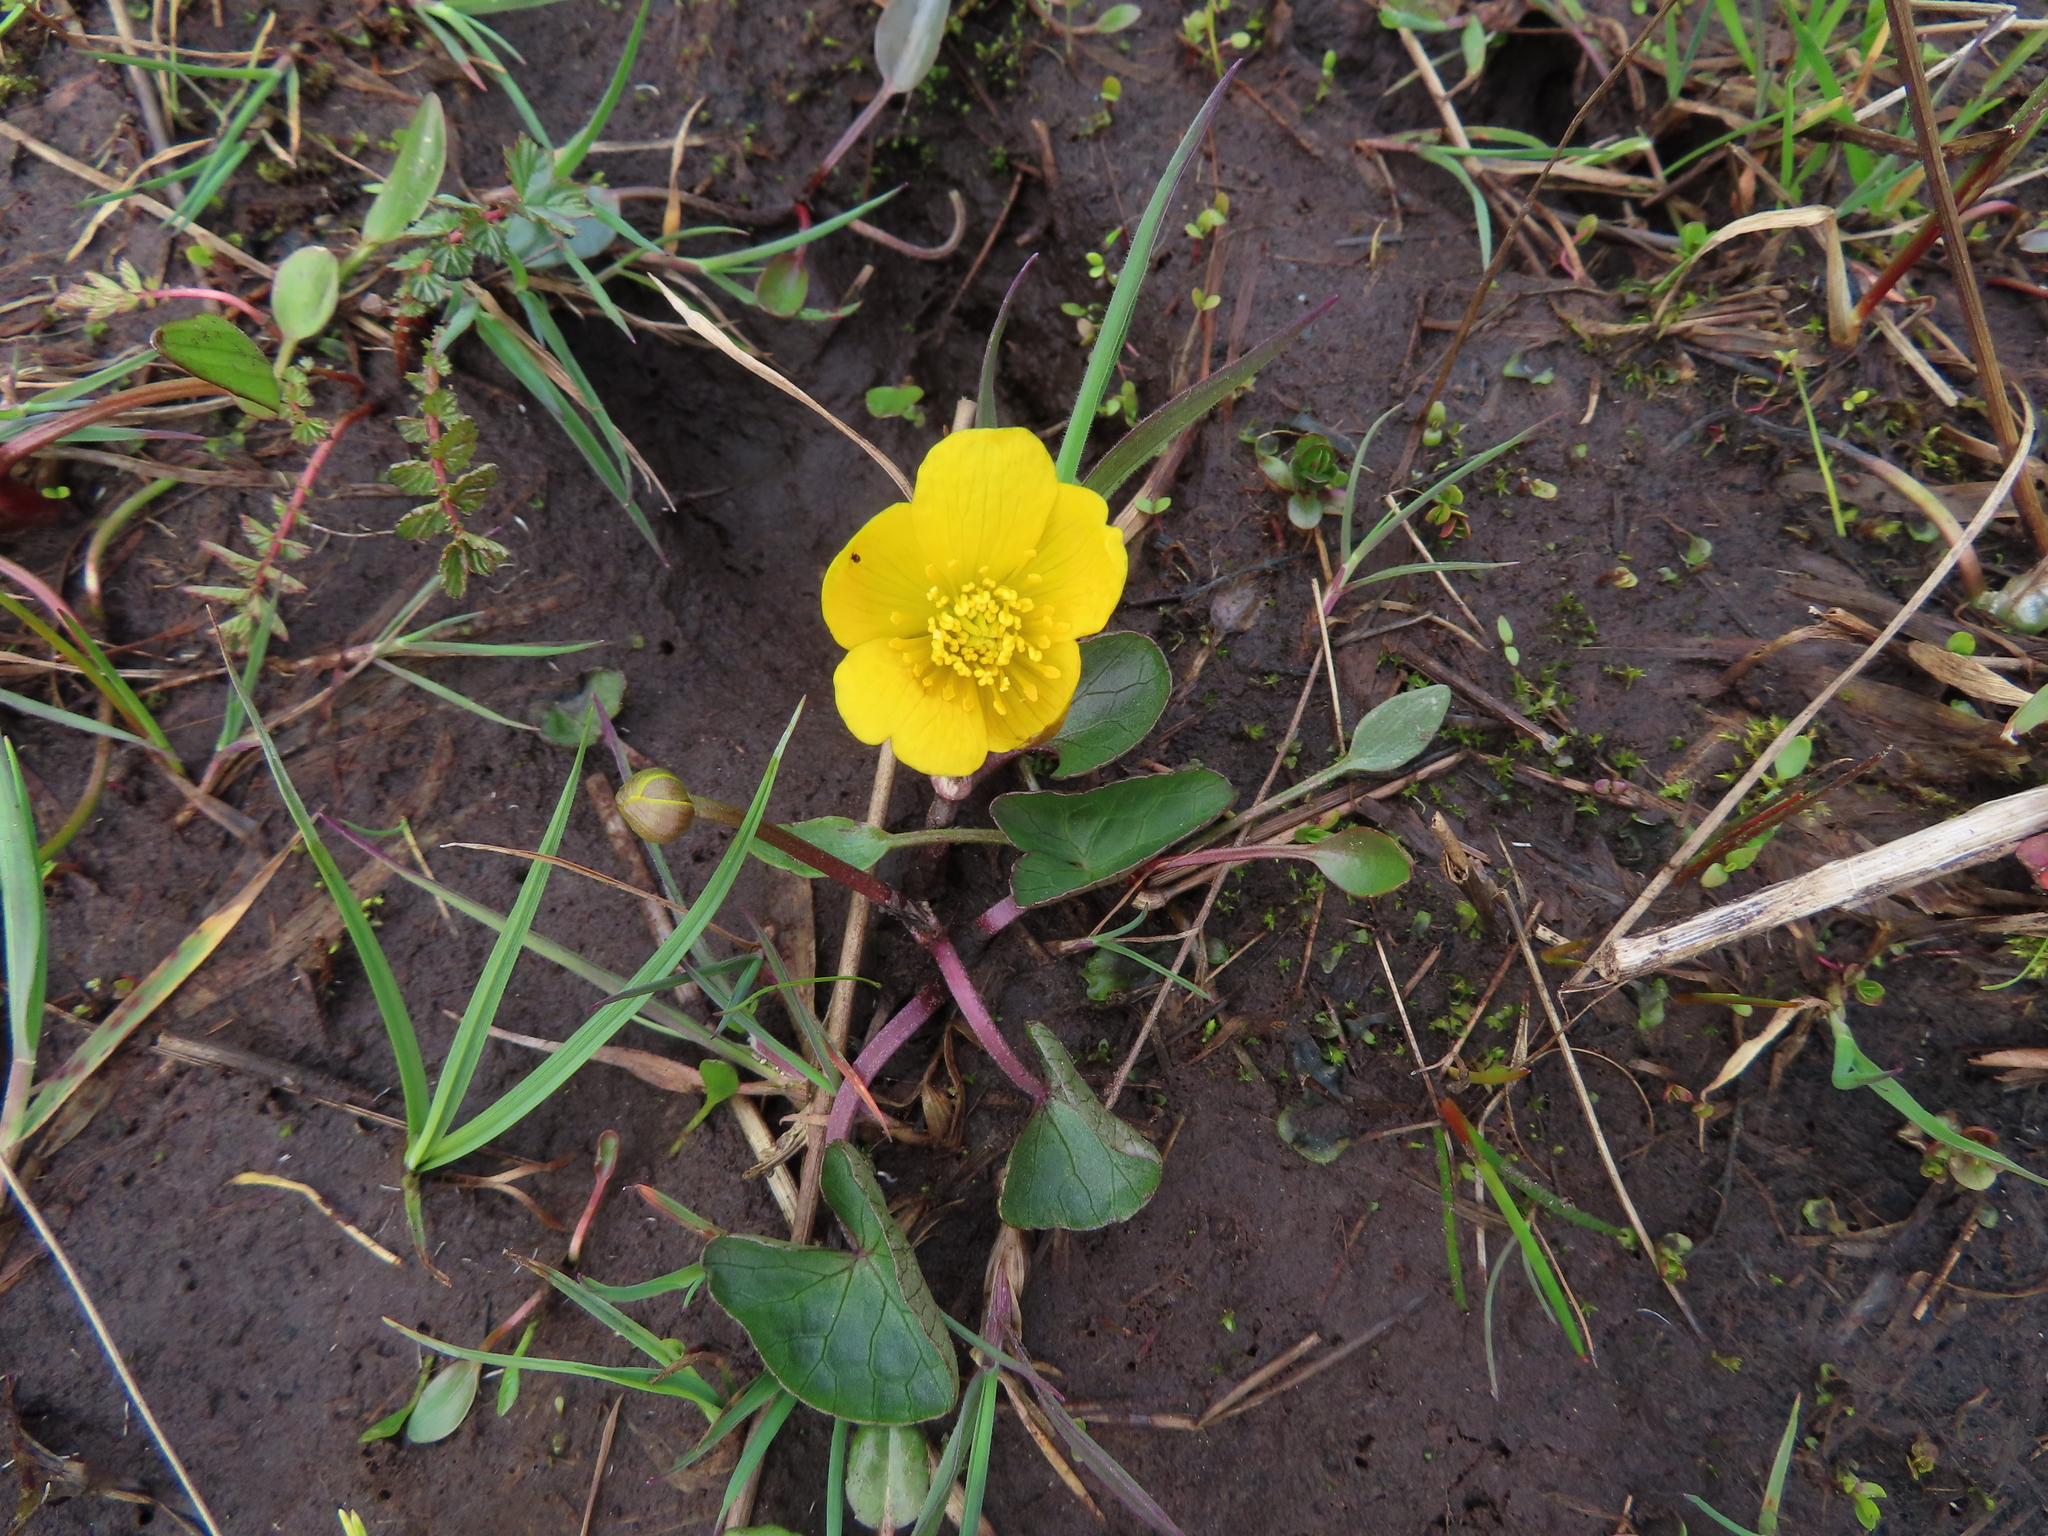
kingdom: Plantae
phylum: Tracheophyta
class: Magnoliopsida
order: Ranunculales
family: Ranunculaceae
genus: Caltha
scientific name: Caltha palustris
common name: Marsh marigold
